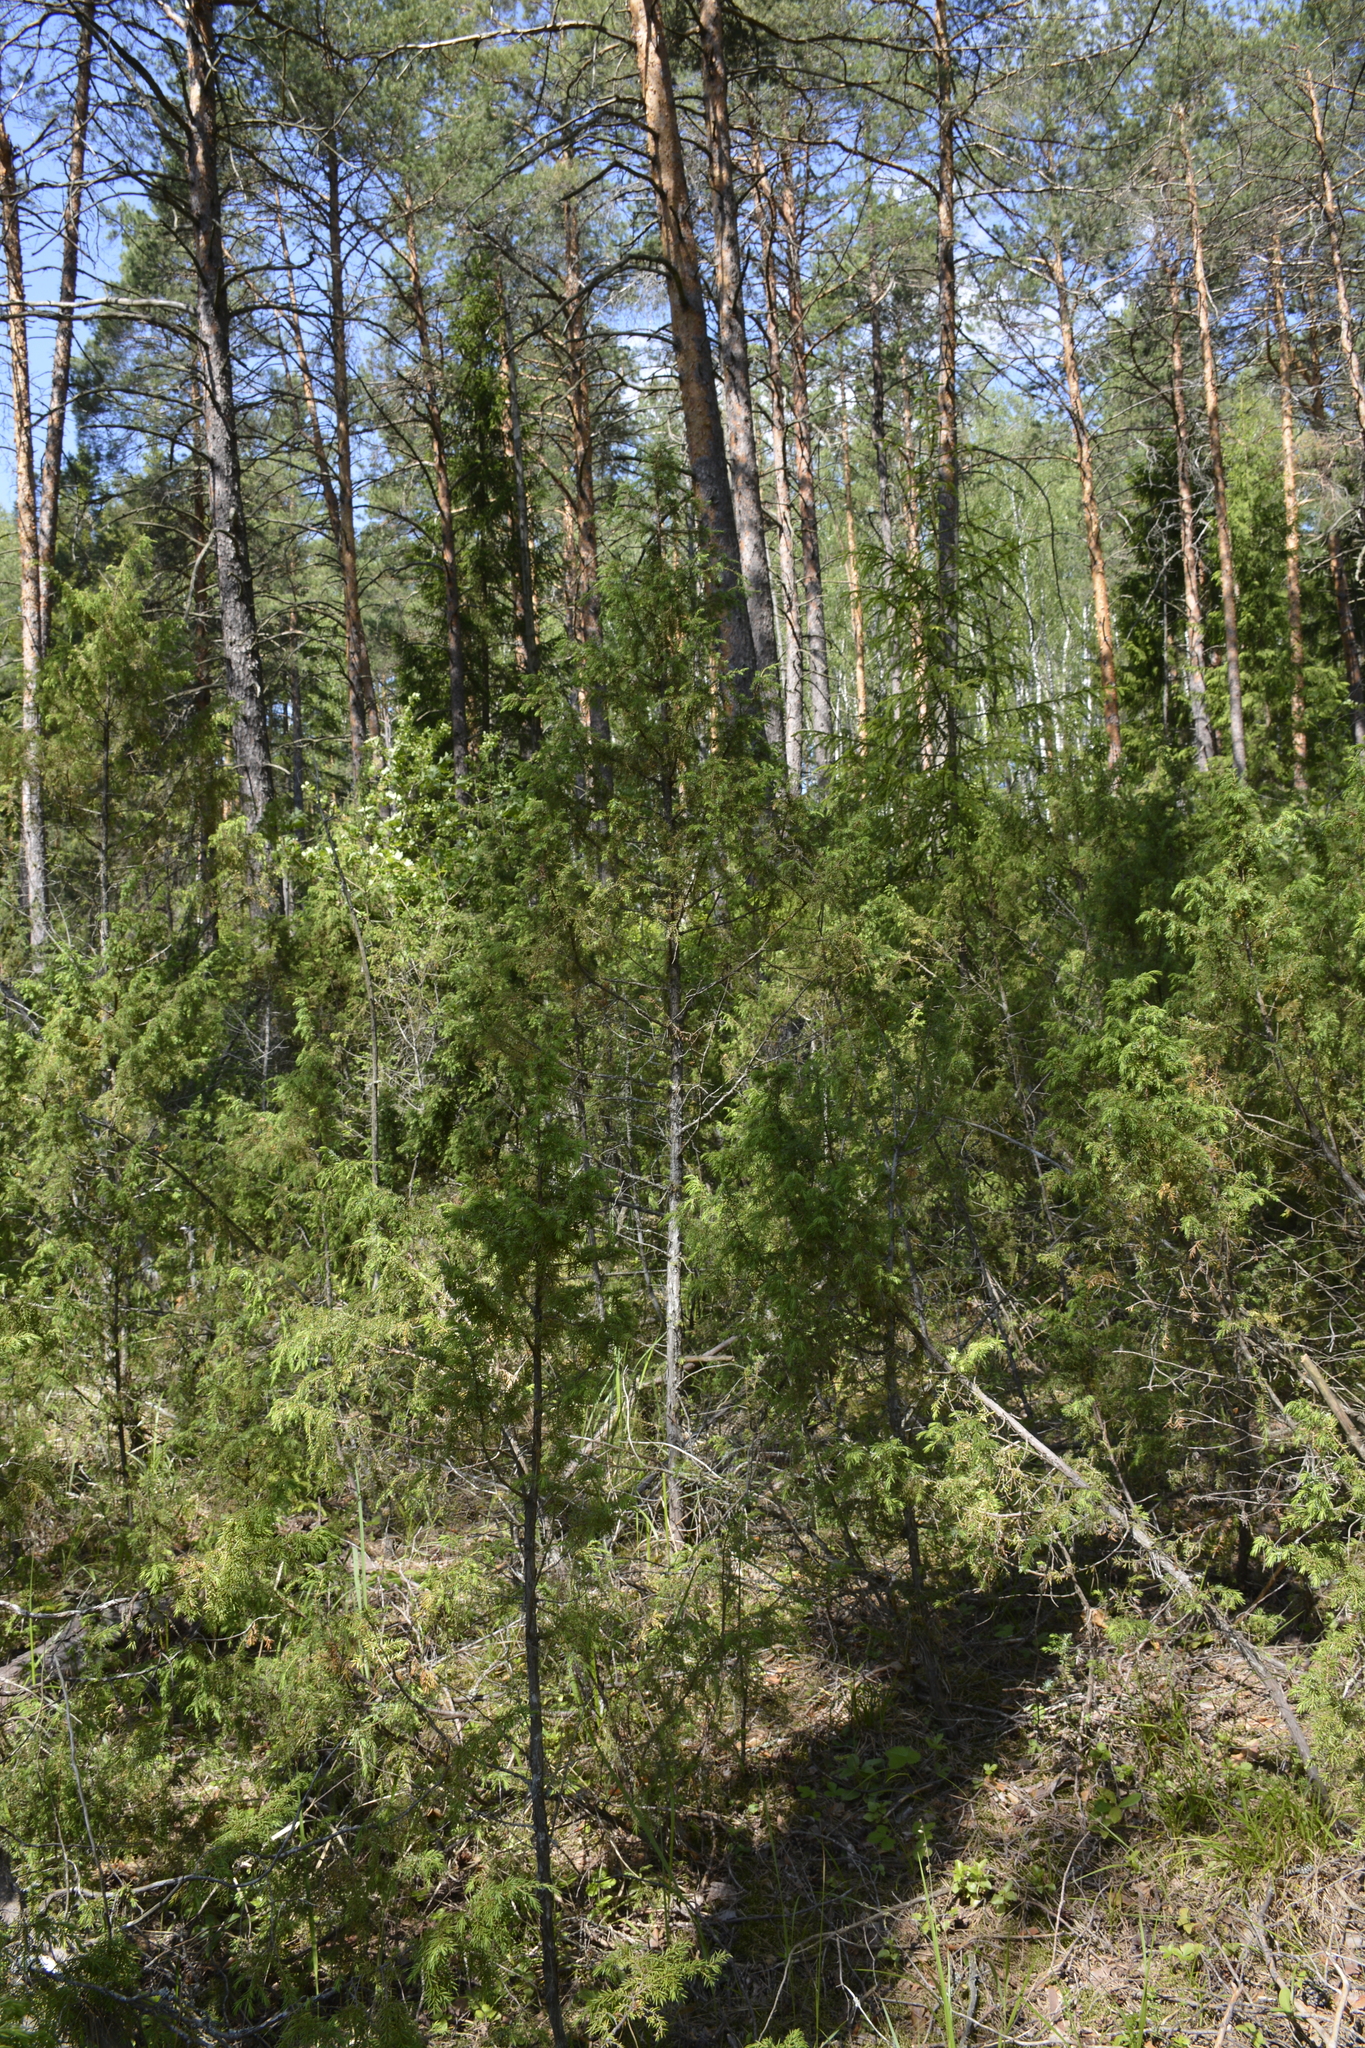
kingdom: Plantae
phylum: Tracheophyta
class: Pinopsida
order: Pinales
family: Cupressaceae
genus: Juniperus
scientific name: Juniperus communis
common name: Common juniper
